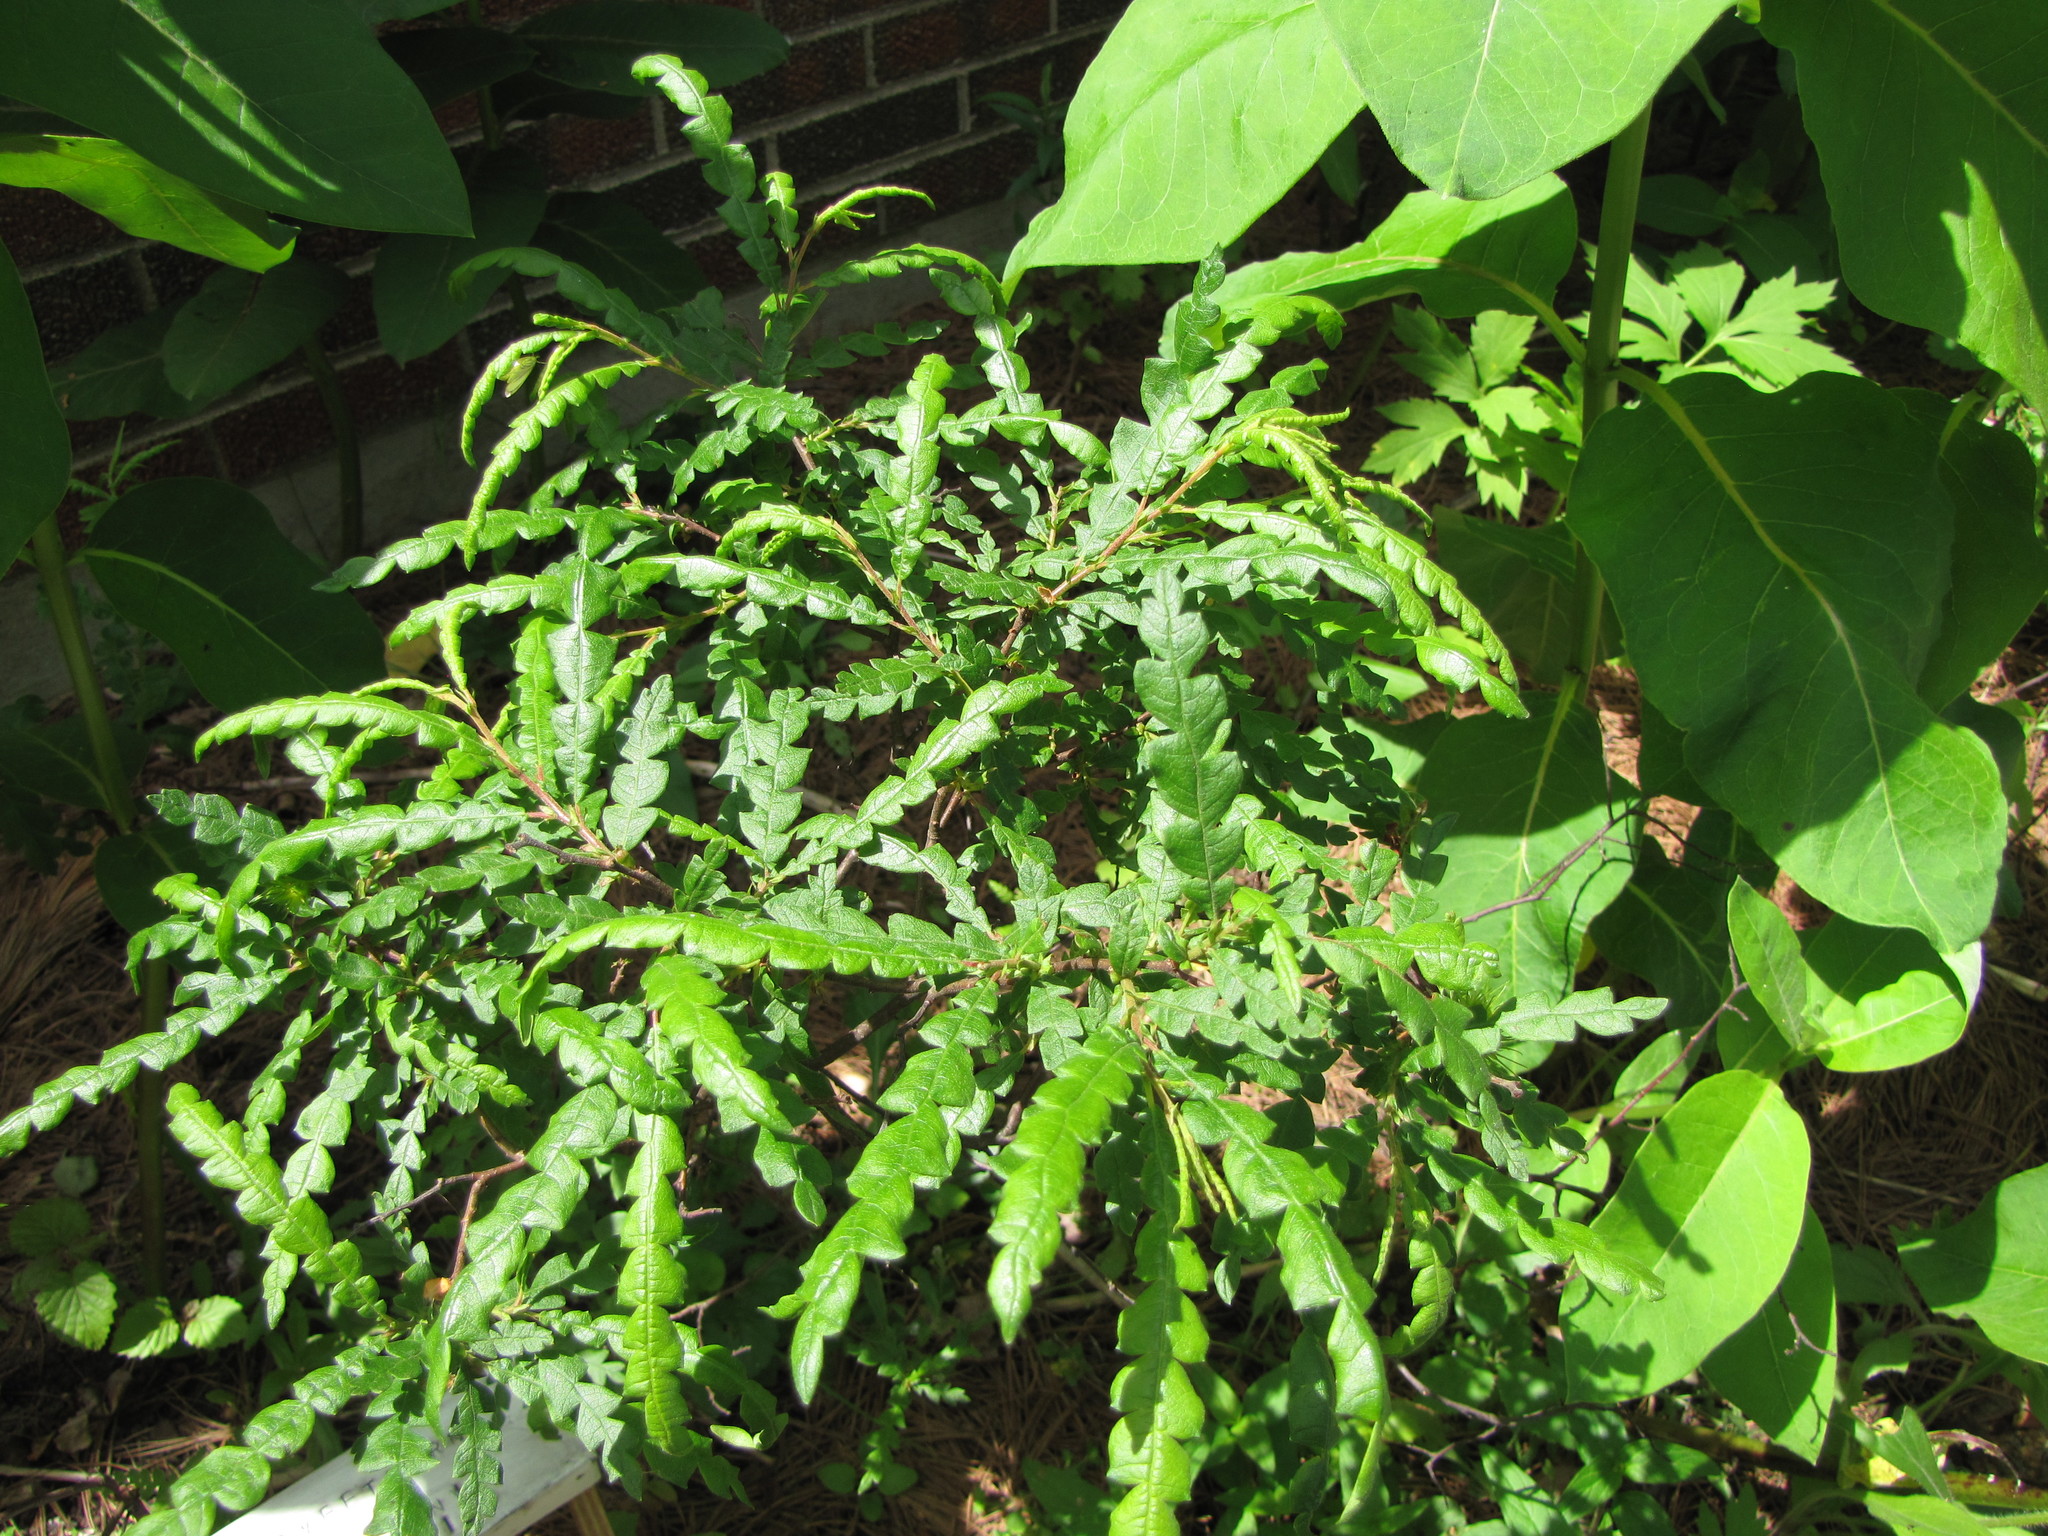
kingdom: Plantae
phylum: Tracheophyta
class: Magnoliopsida
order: Fagales
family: Myricaceae
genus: Comptonia
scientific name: Comptonia peregrina
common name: Sweet-fern
